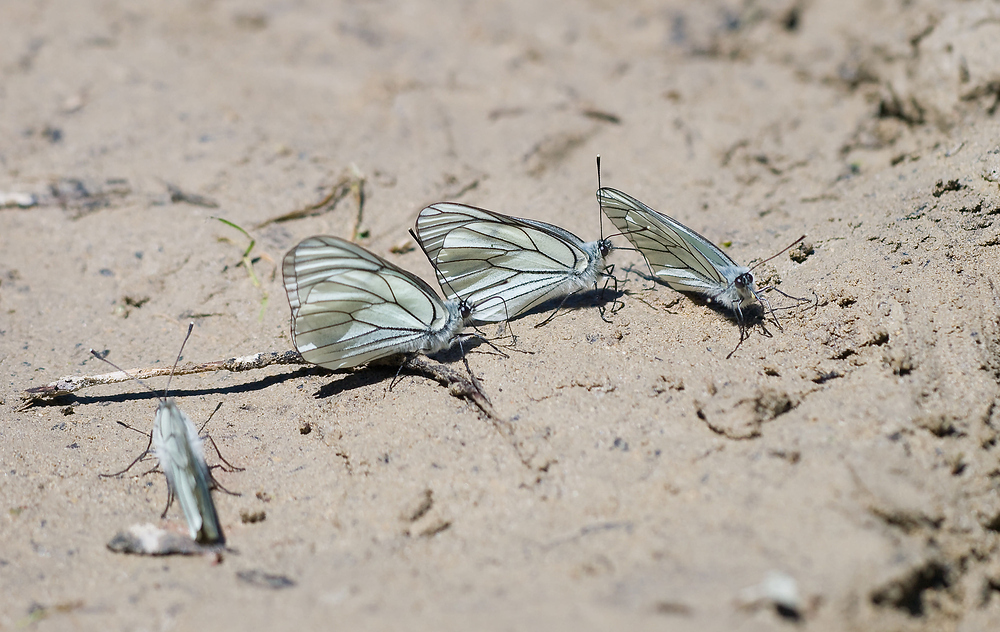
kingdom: Animalia
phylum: Arthropoda
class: Insecta
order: Lepidoptera
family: Pieridae
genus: Aporia
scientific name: Aporia crataegi
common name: Black-veined white
